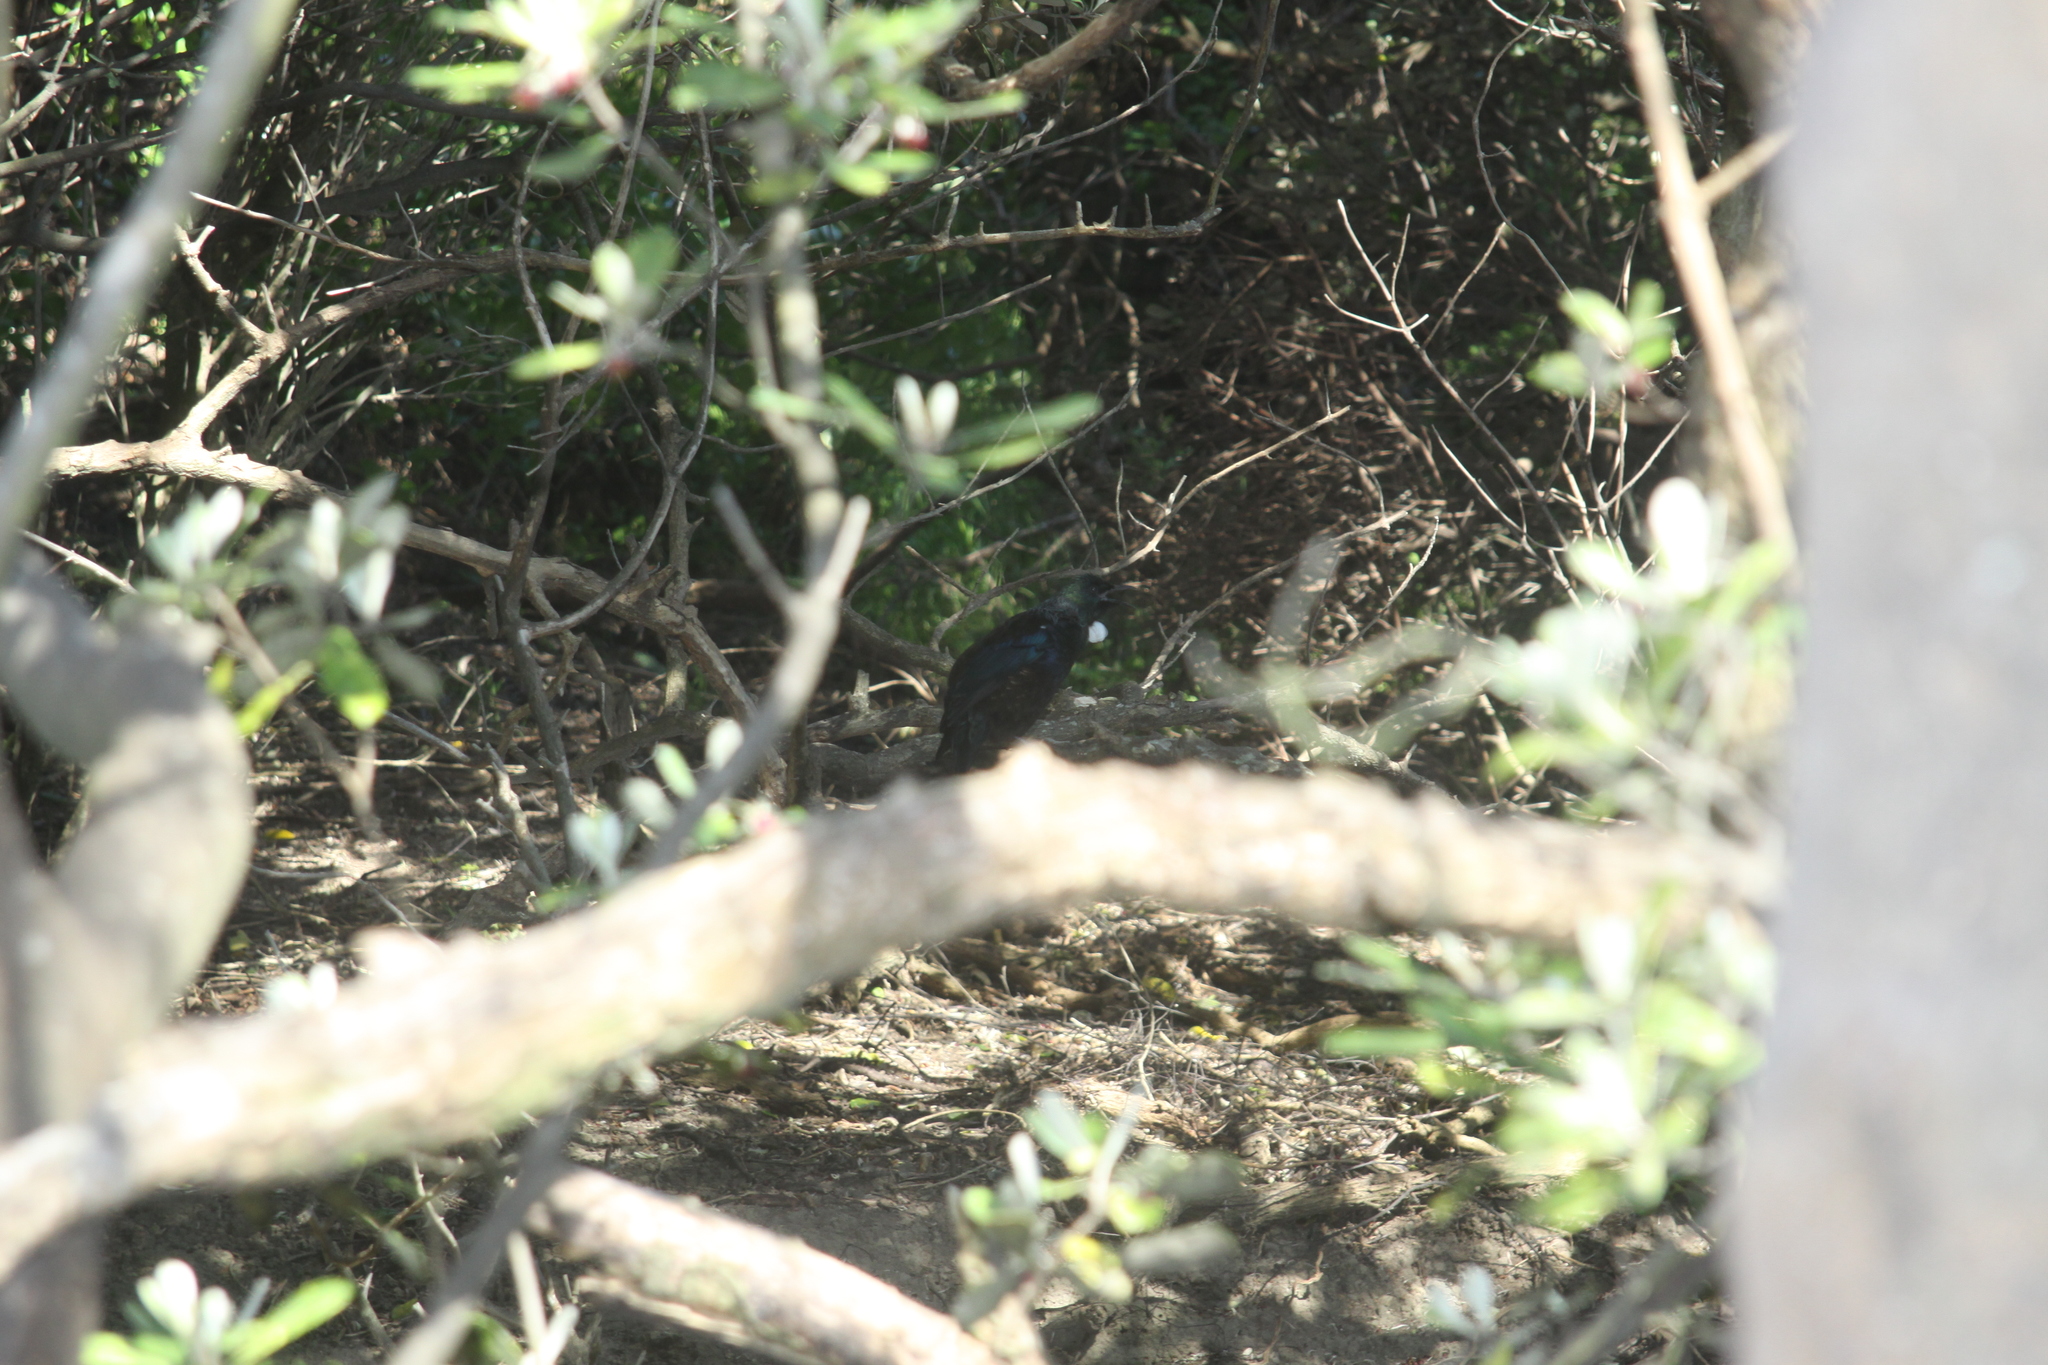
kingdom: Animalia
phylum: Chordata
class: Aves
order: Passeriformes
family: Meliphagidae
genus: Prosthemadera
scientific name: Prosthemadera novaeseelandiae
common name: Tui
